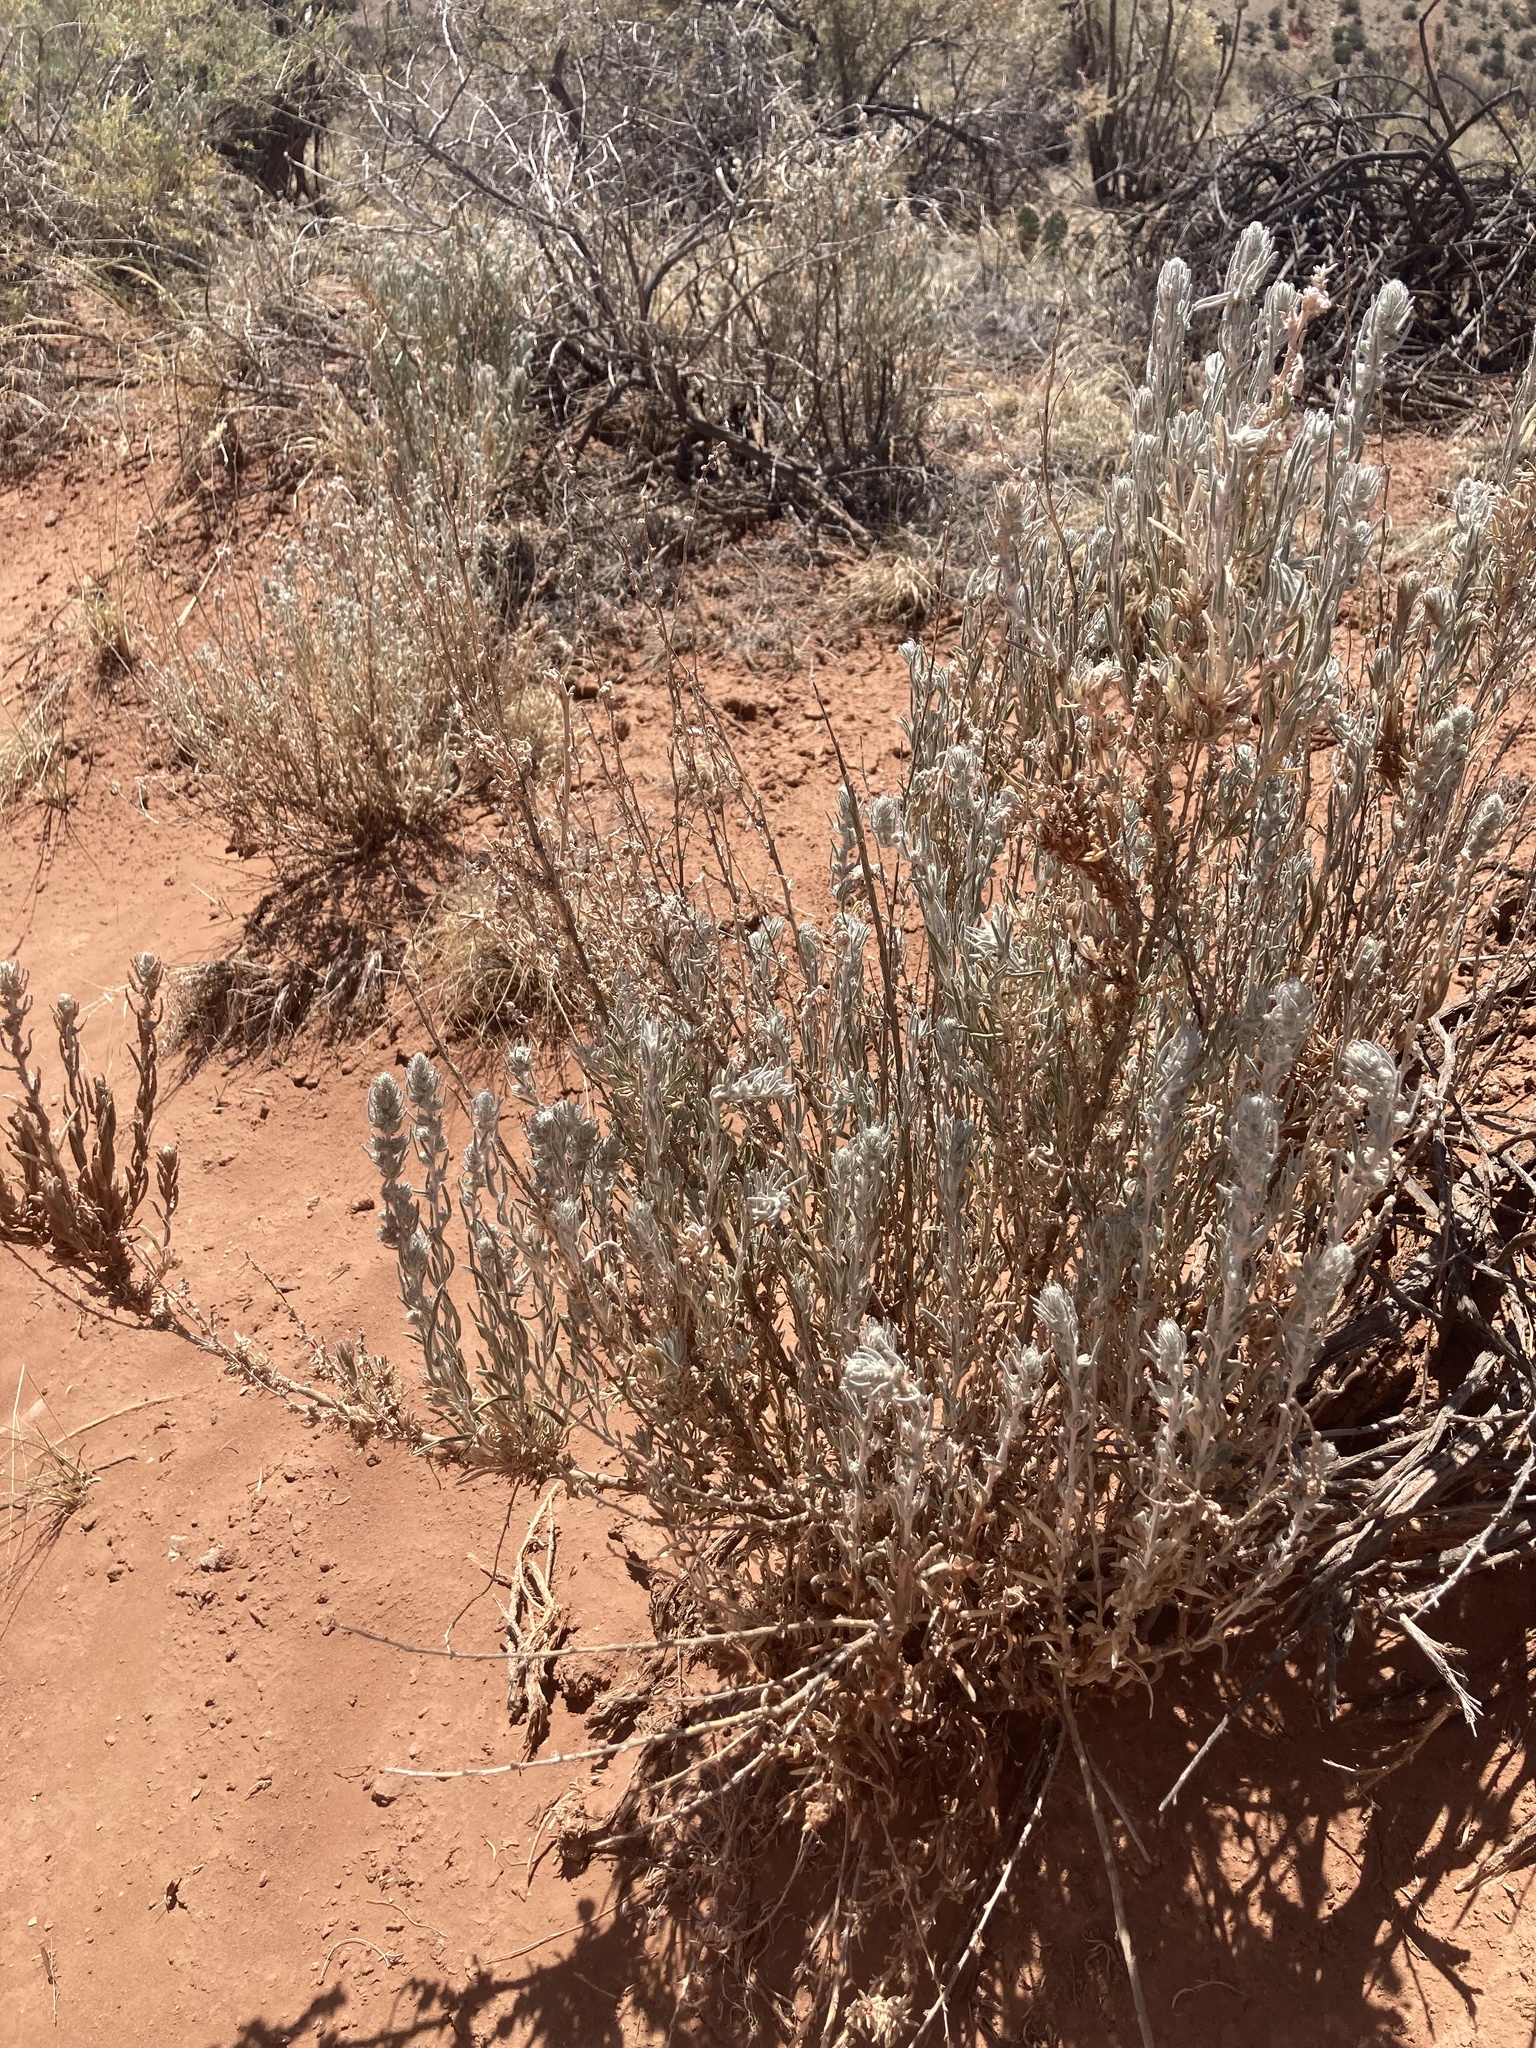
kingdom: Plantae
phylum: Tracheophyta
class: Magnoliopsida
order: Caryophyllales
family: Amaranthaceae
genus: Krascheninnikovia
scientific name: Krascheninnikovia lanata
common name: Winterfat
